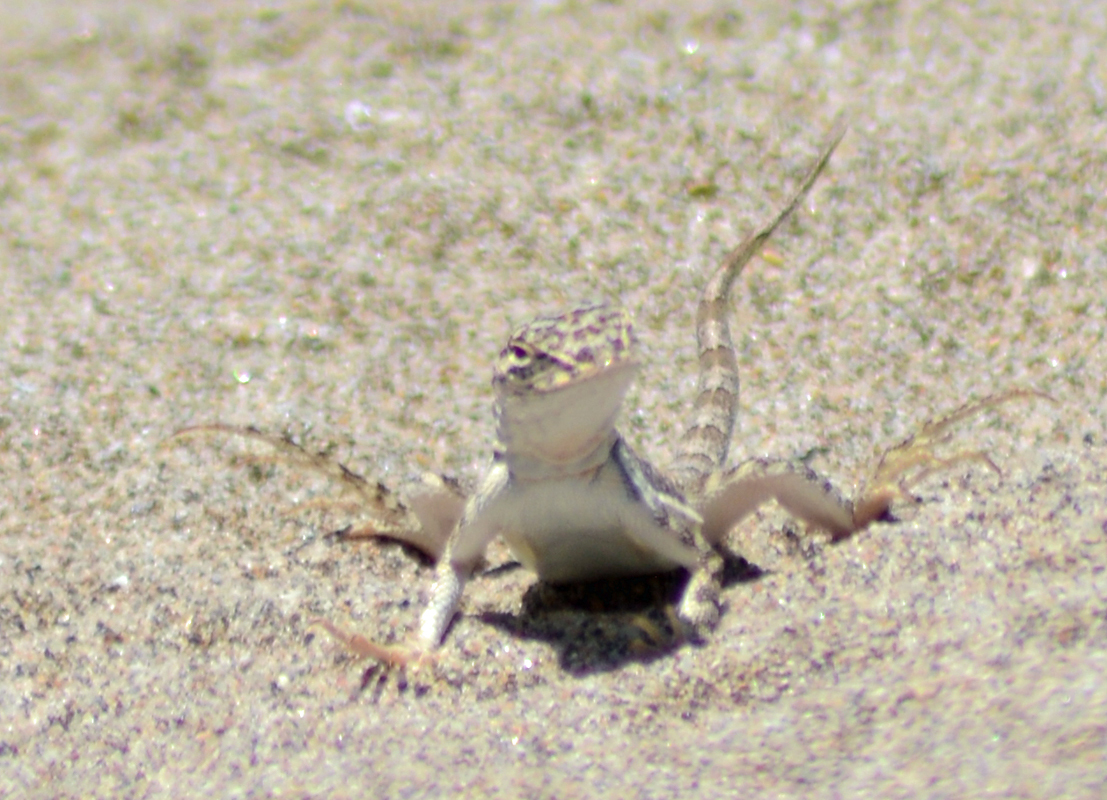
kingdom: Animalia
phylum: Chordata
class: Squamata
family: Phrynosomatidae
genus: Callisaurus
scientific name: Callisaurus draconoides
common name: Zebra-tailed lizard
